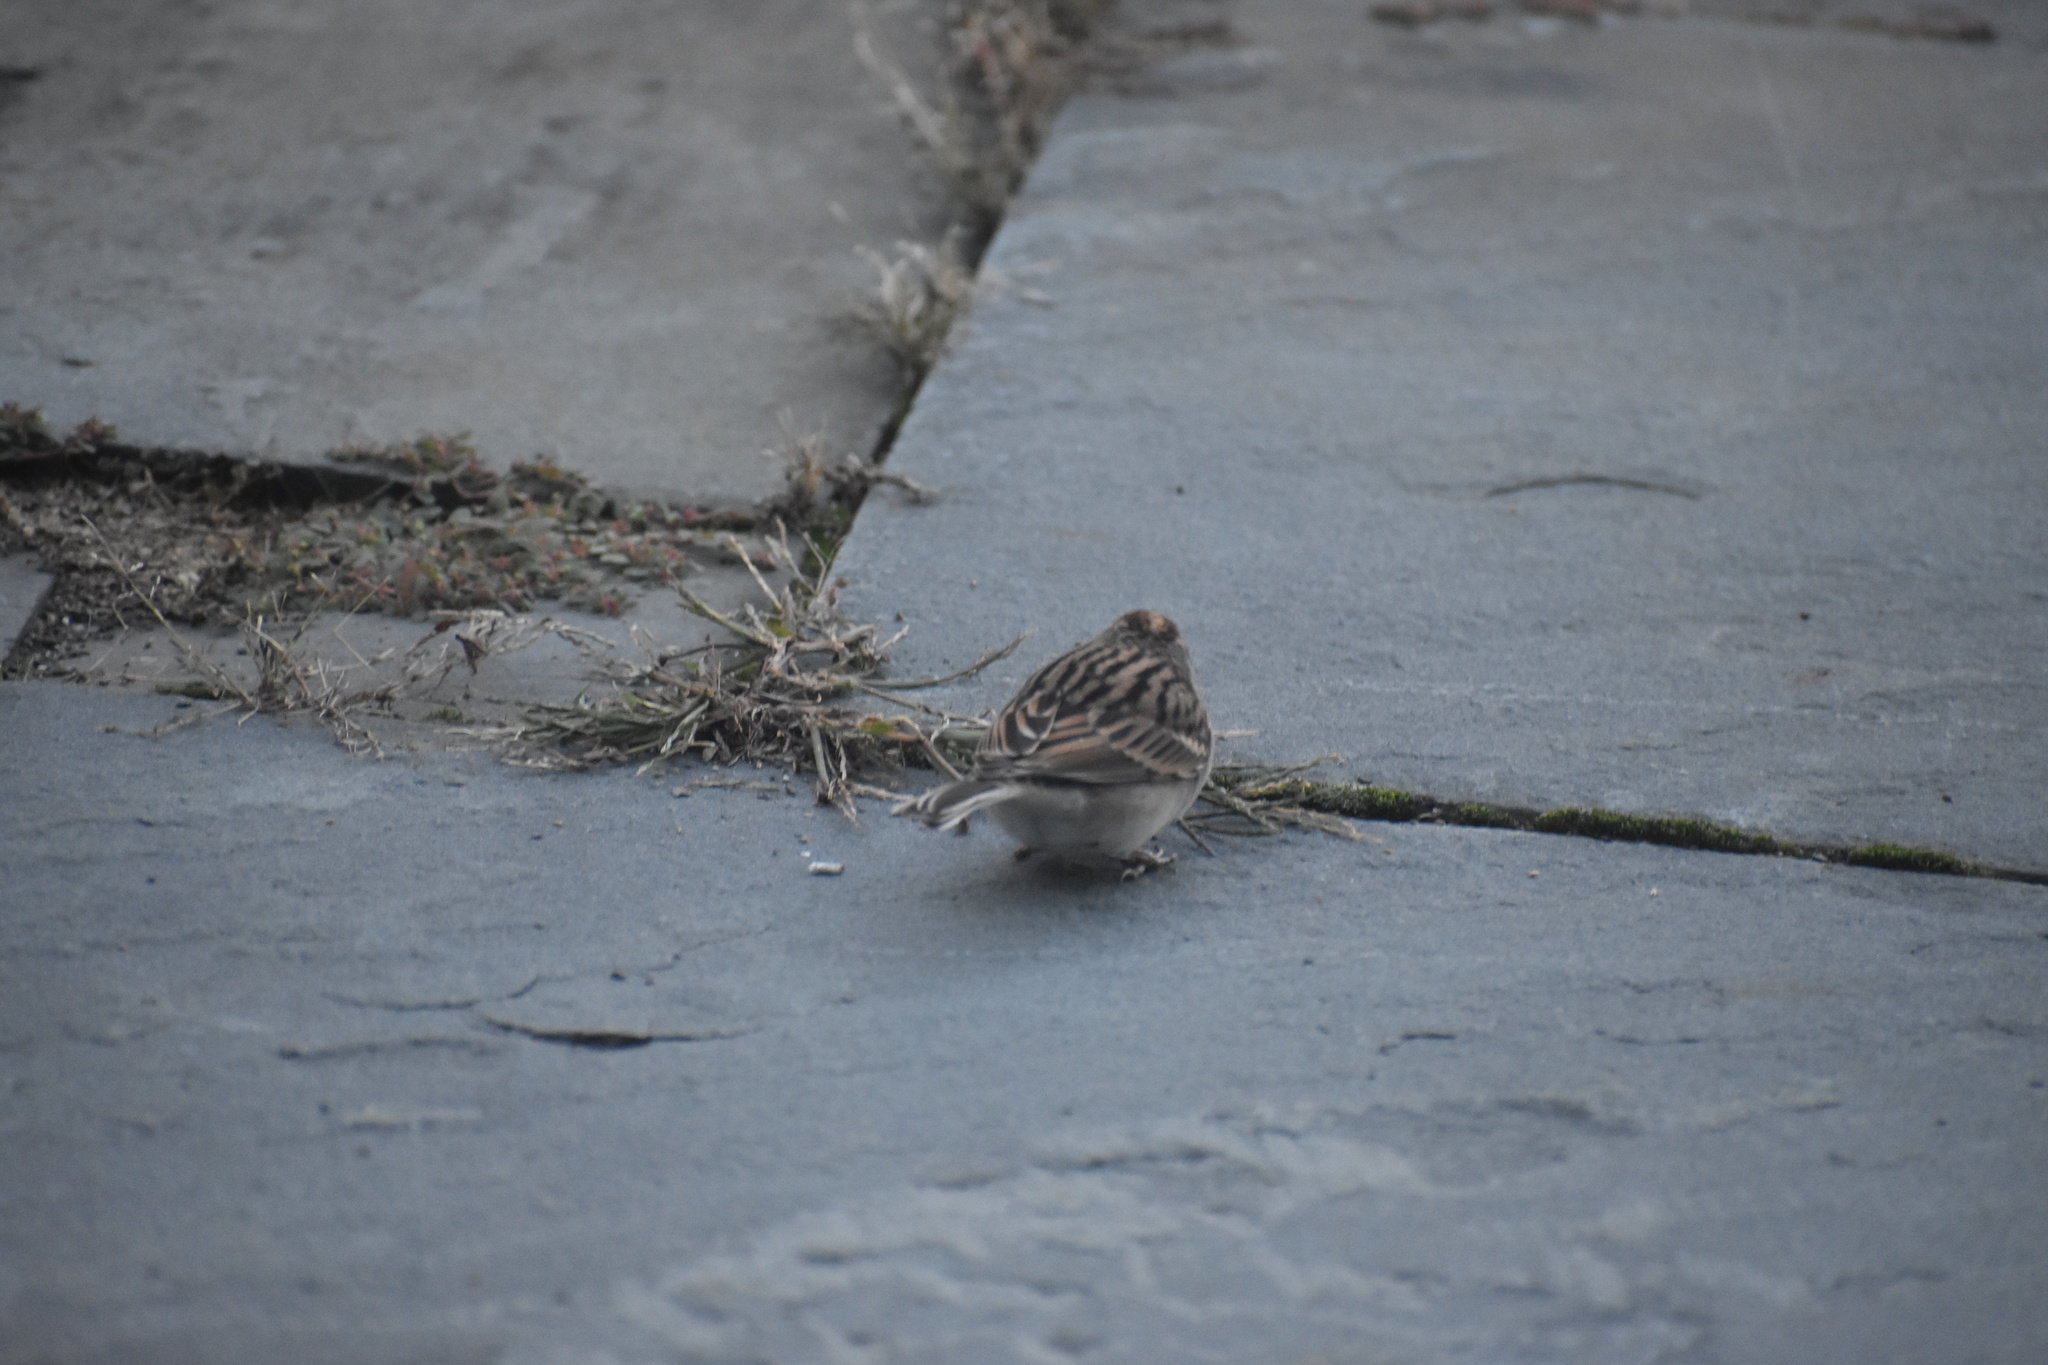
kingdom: Animalia
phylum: Chordata
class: Aves
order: Passeriformes
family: Passerellidae
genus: Spizella
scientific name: Spizella passerina
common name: Chipping sparrow
